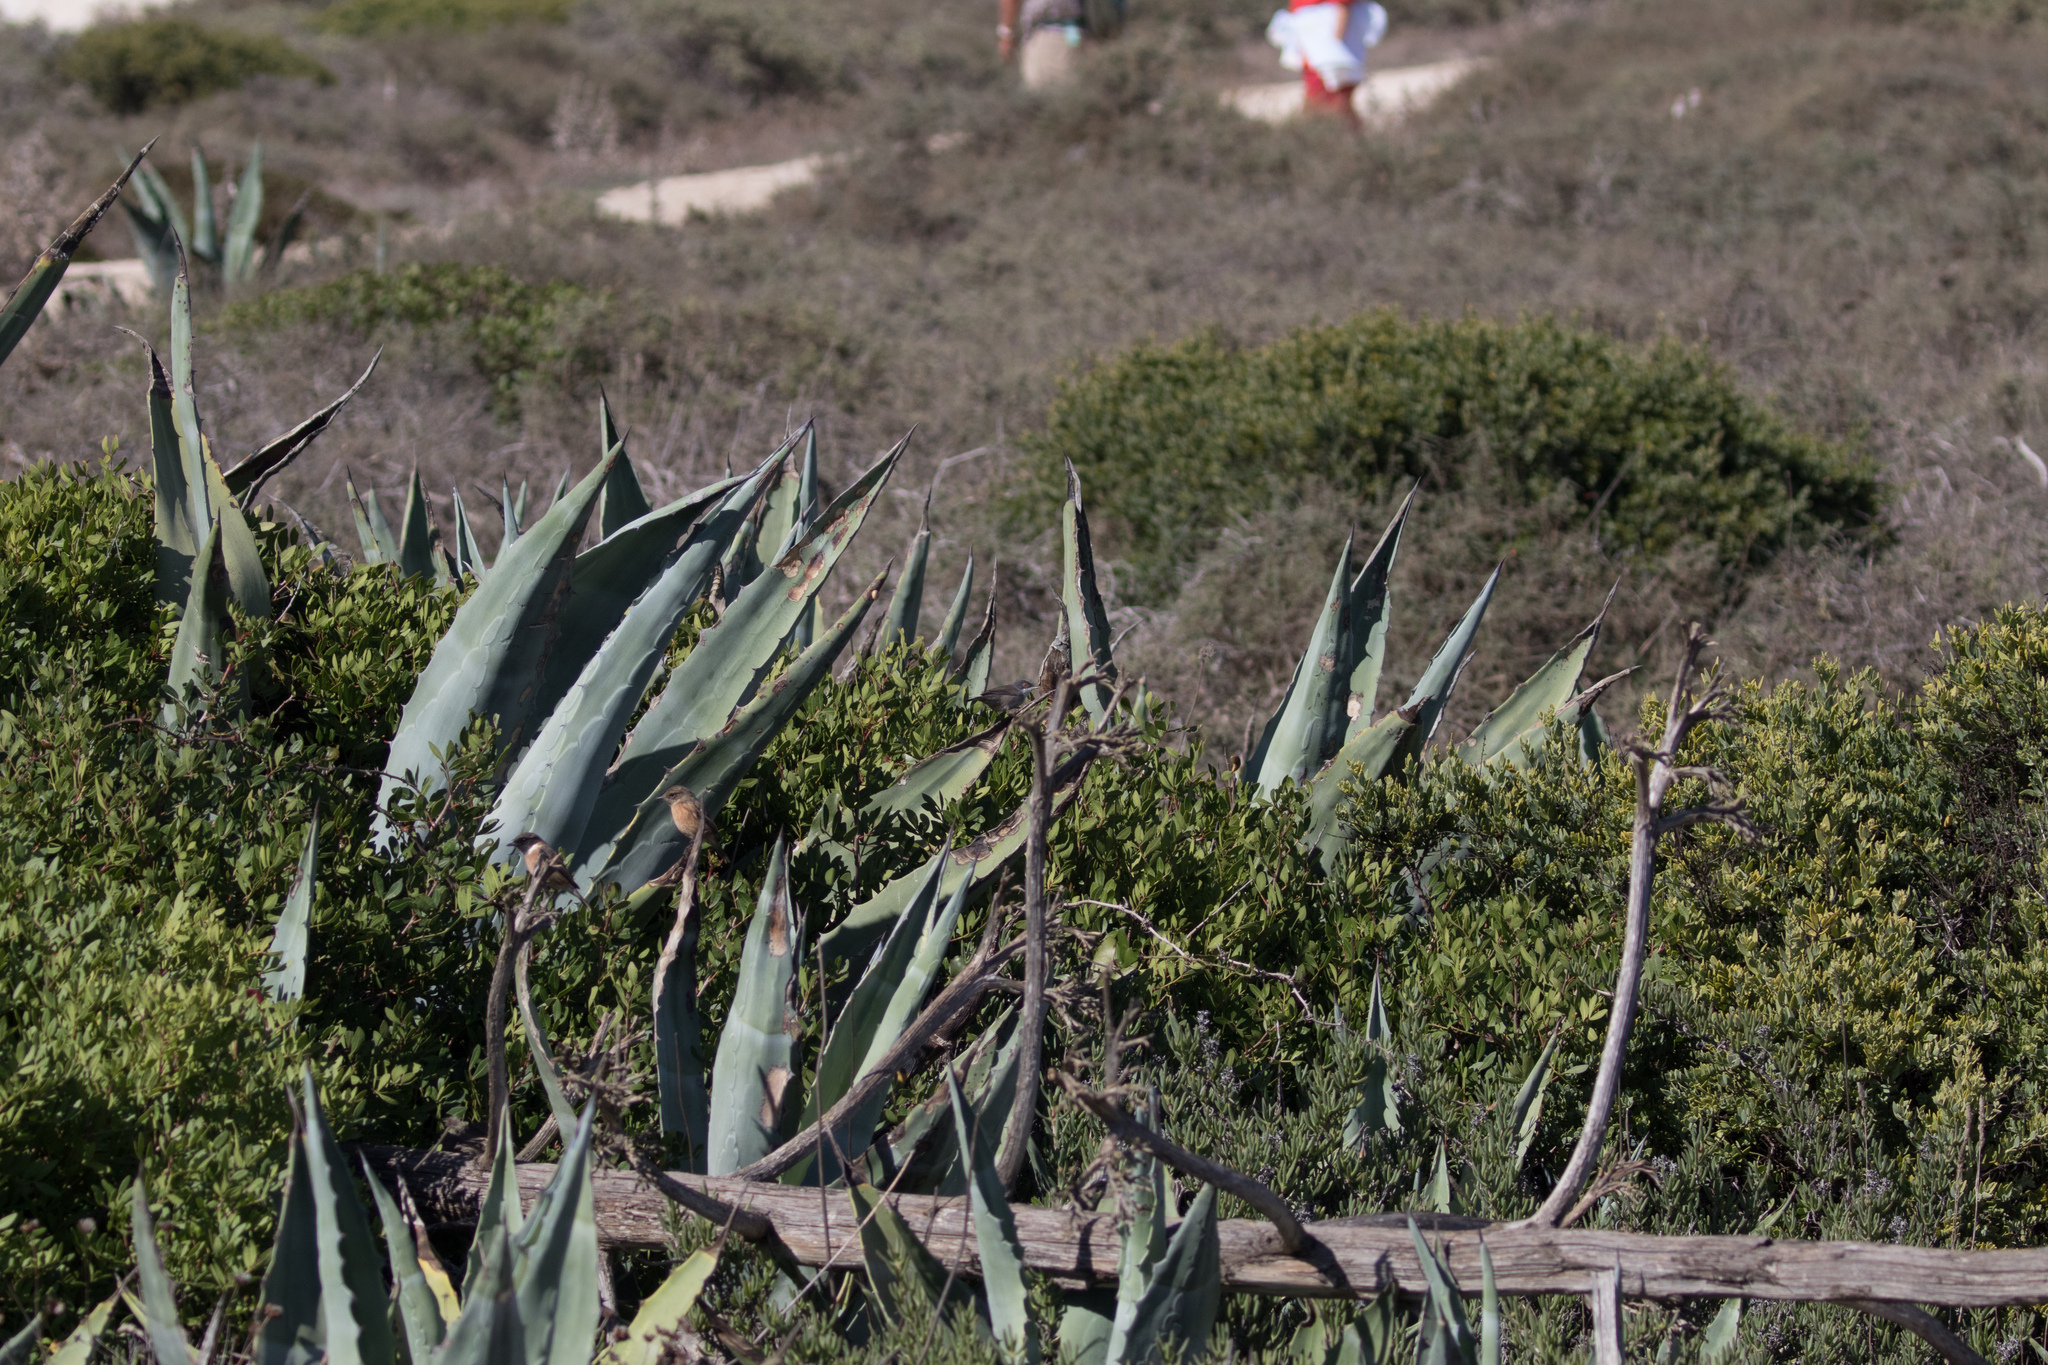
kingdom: Animalia
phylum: Chordata
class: Aves
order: Passeriformes
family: Sylviidae
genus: Curruca
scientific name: Curruca melanocephala
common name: Sardinian warbler
